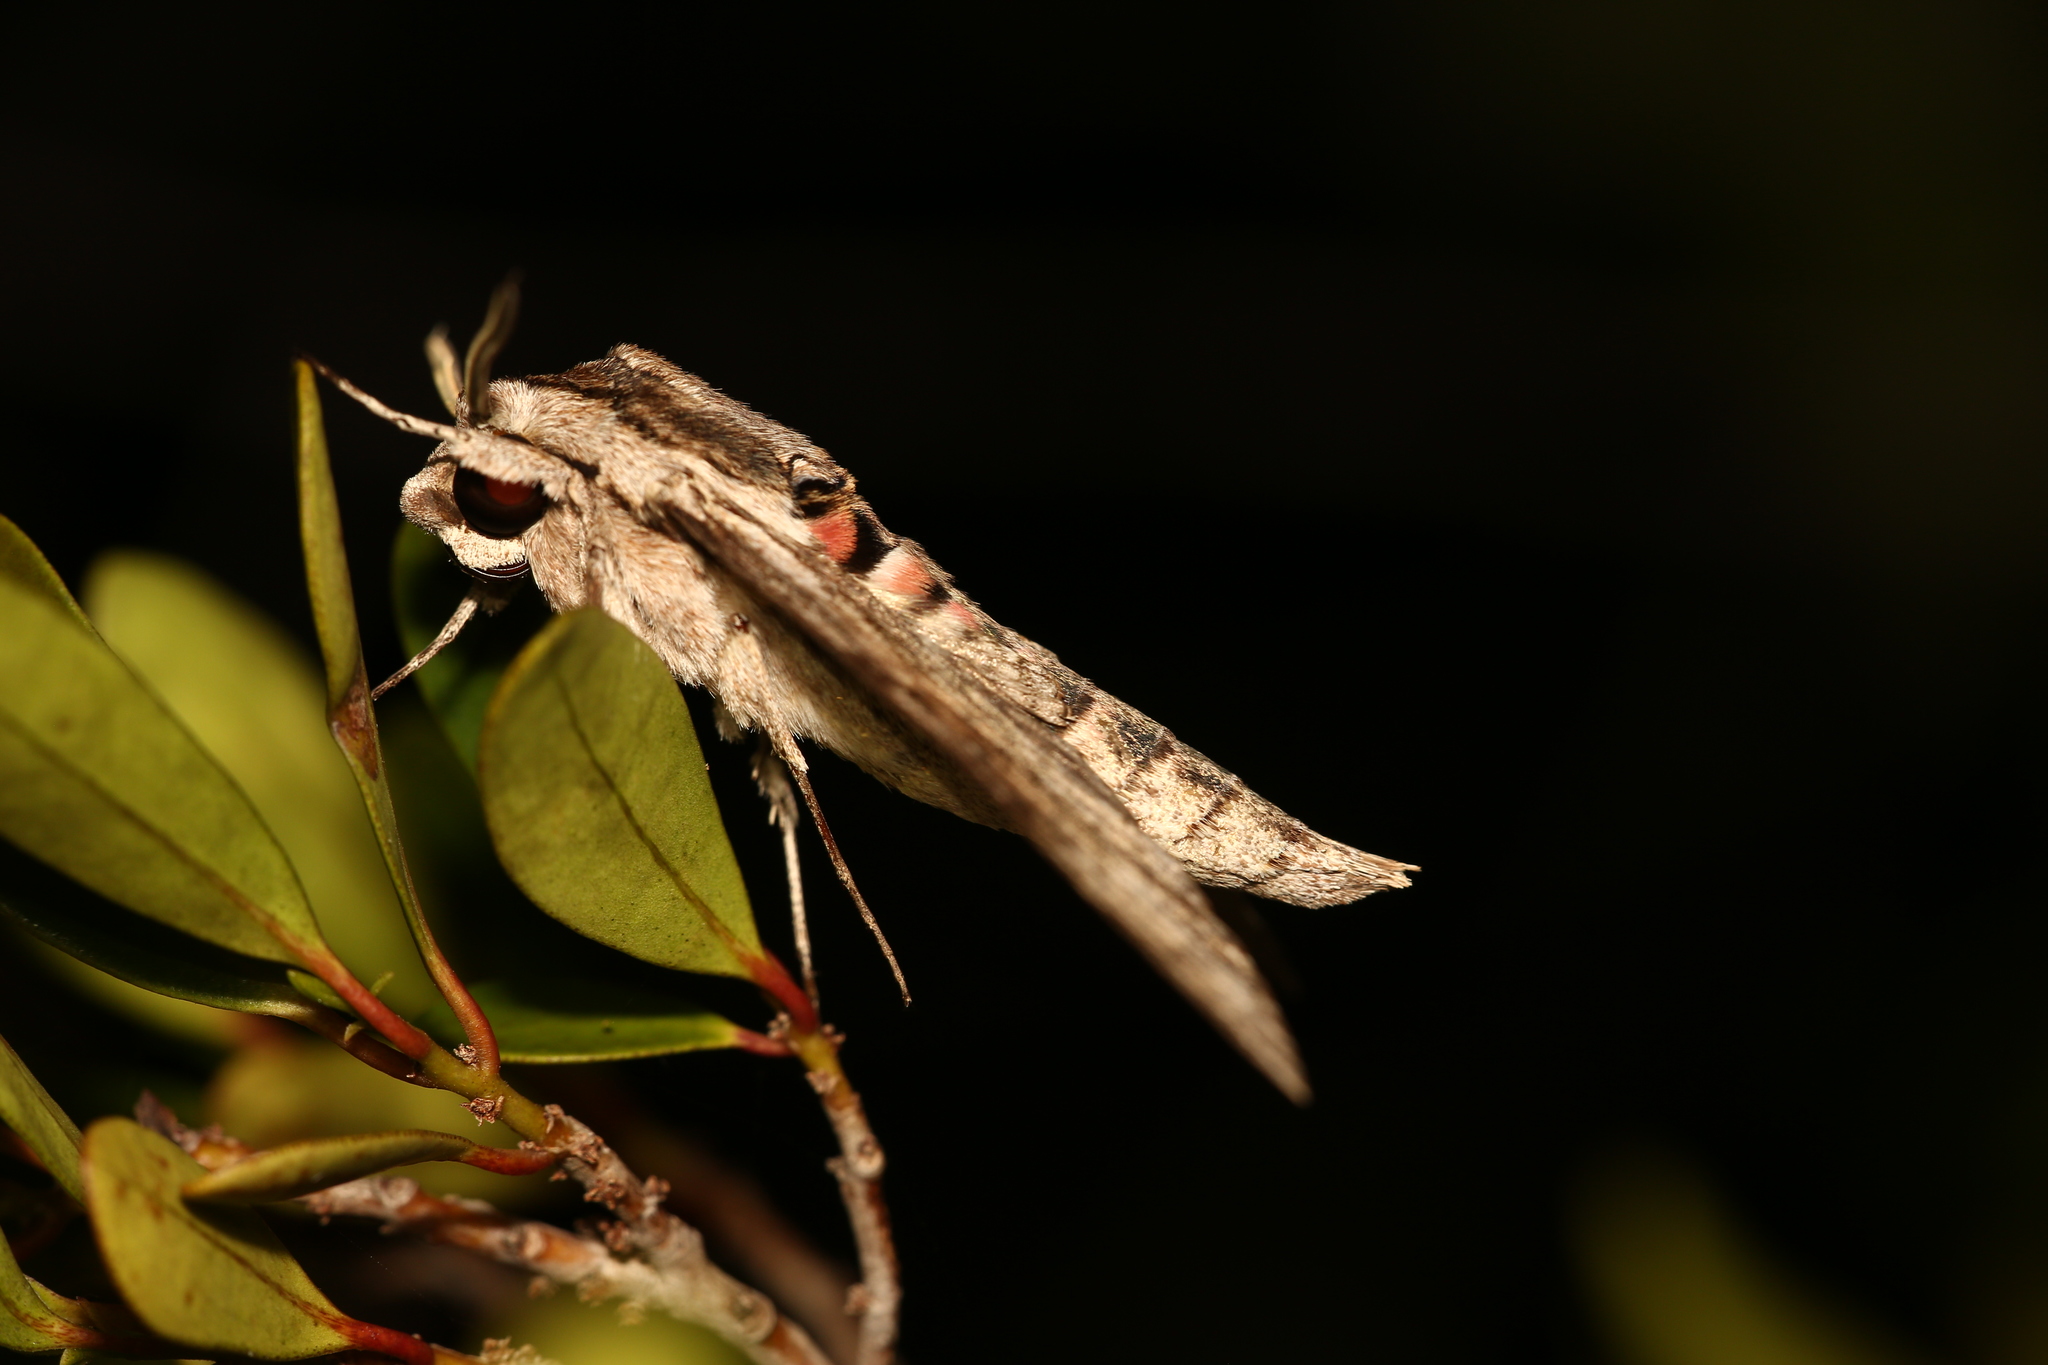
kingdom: Animalia
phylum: Arthropoda
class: Insecta
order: Lepidoptera
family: Sphingidae
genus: Agrius
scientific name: Agrius convolvuli
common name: Convolvulus hawkmoth
